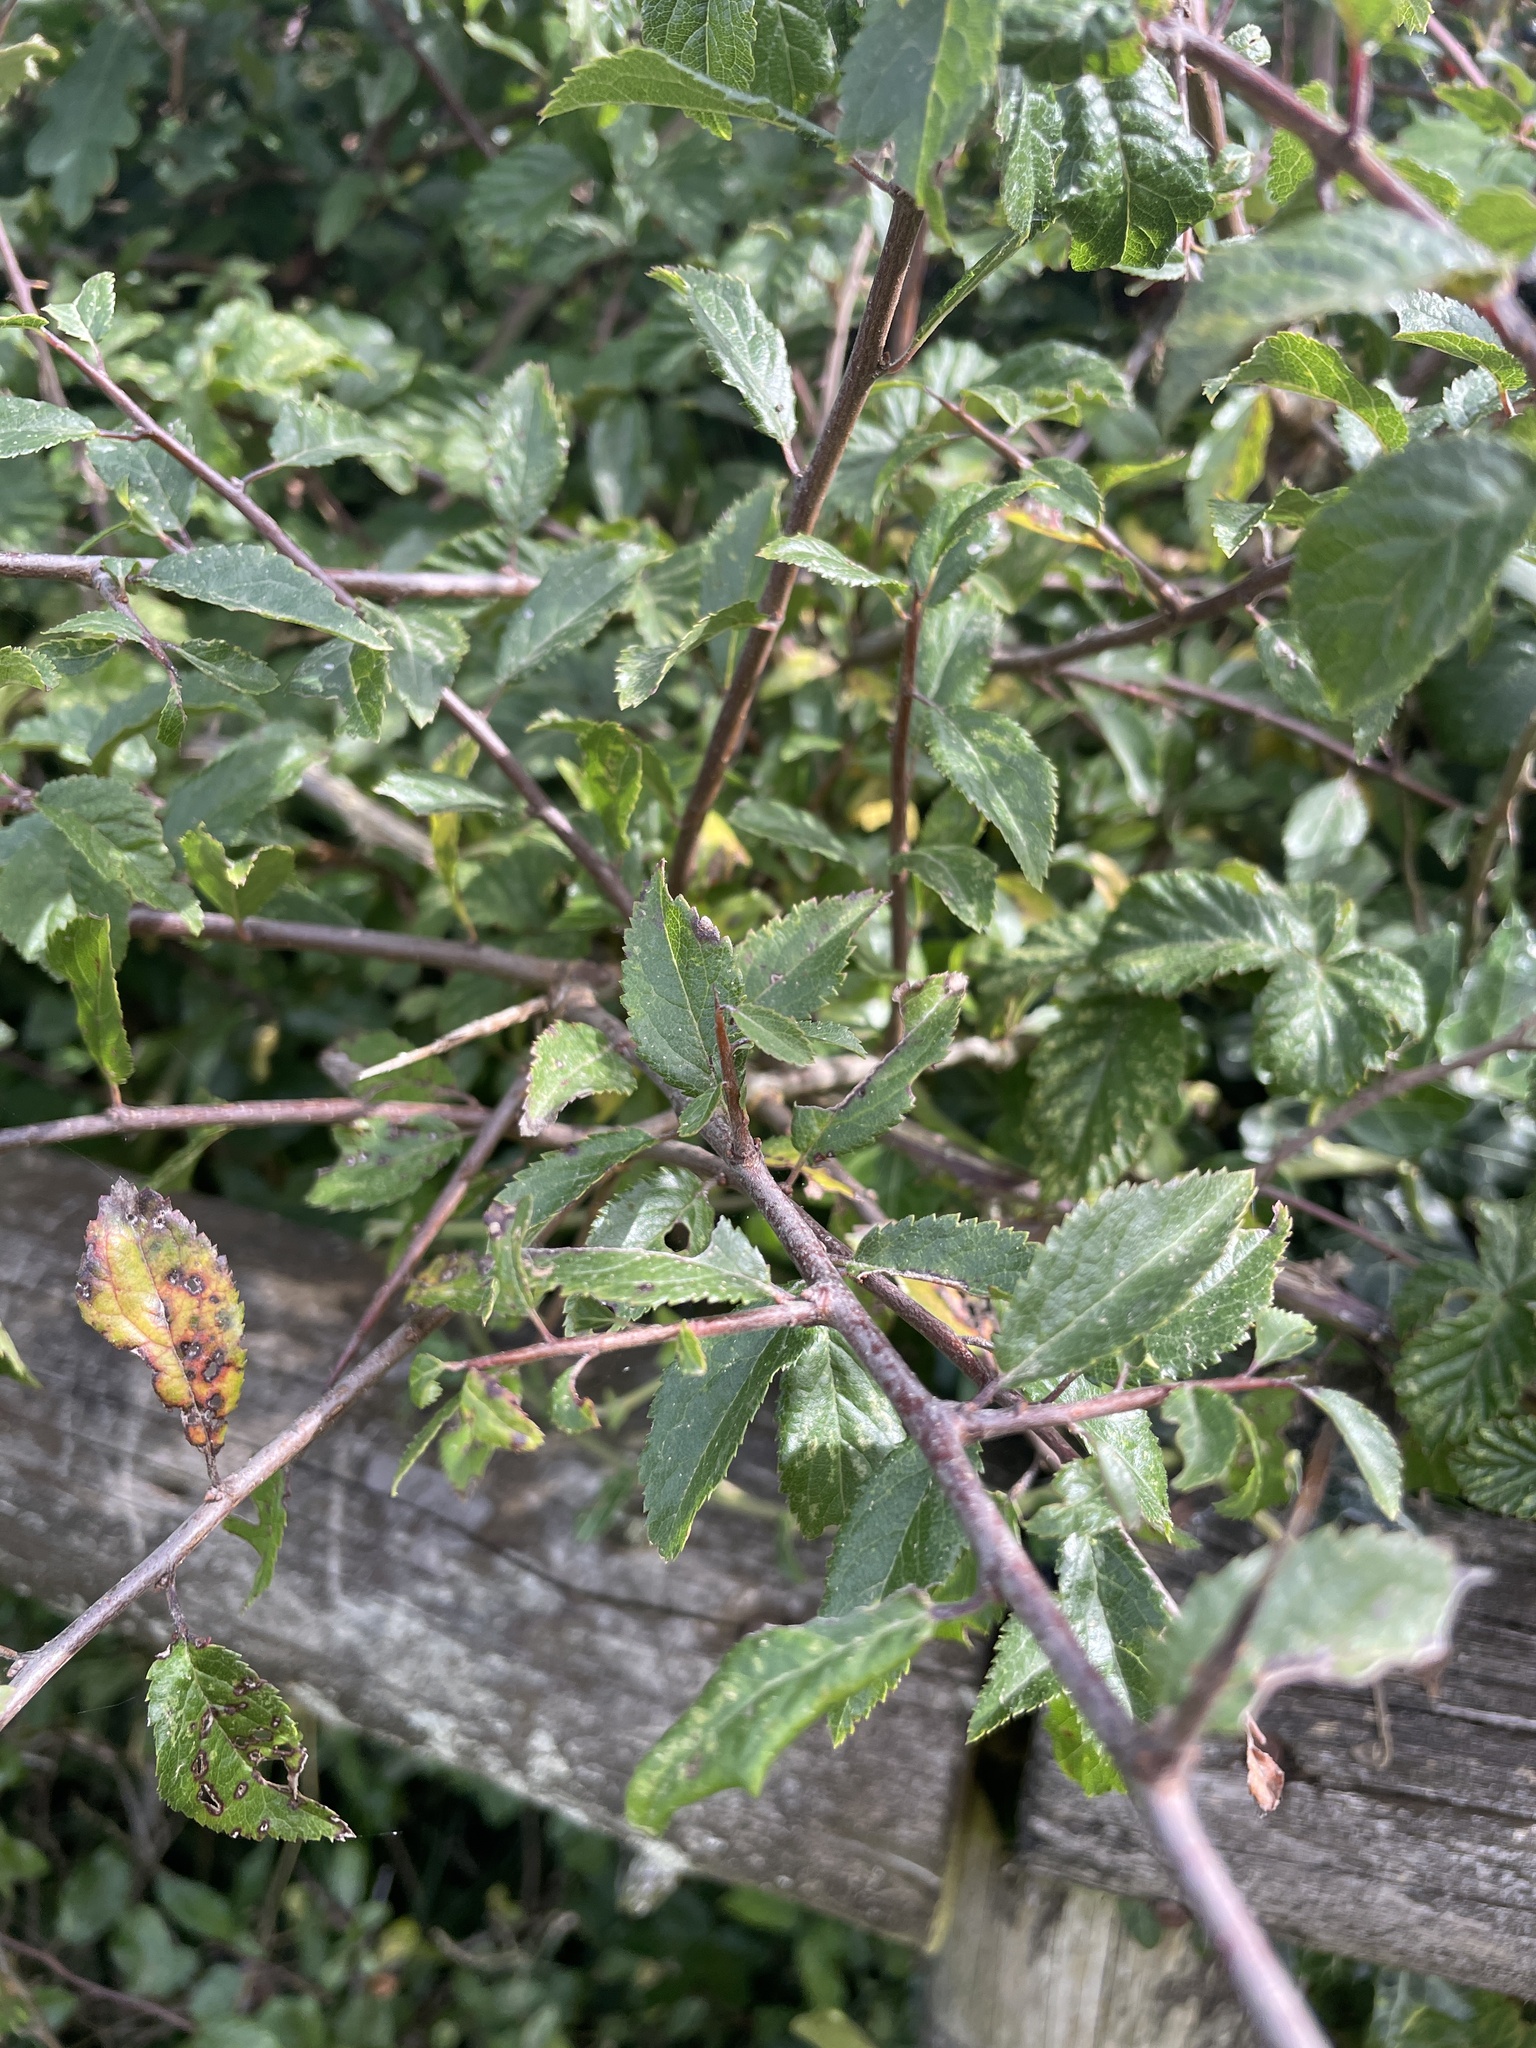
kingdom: Plantae
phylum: Tracheophyta
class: Magnoliopsida
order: Rosales
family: Rosaceae
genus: Prunus
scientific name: Prunus spinosa
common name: Blackthorn
